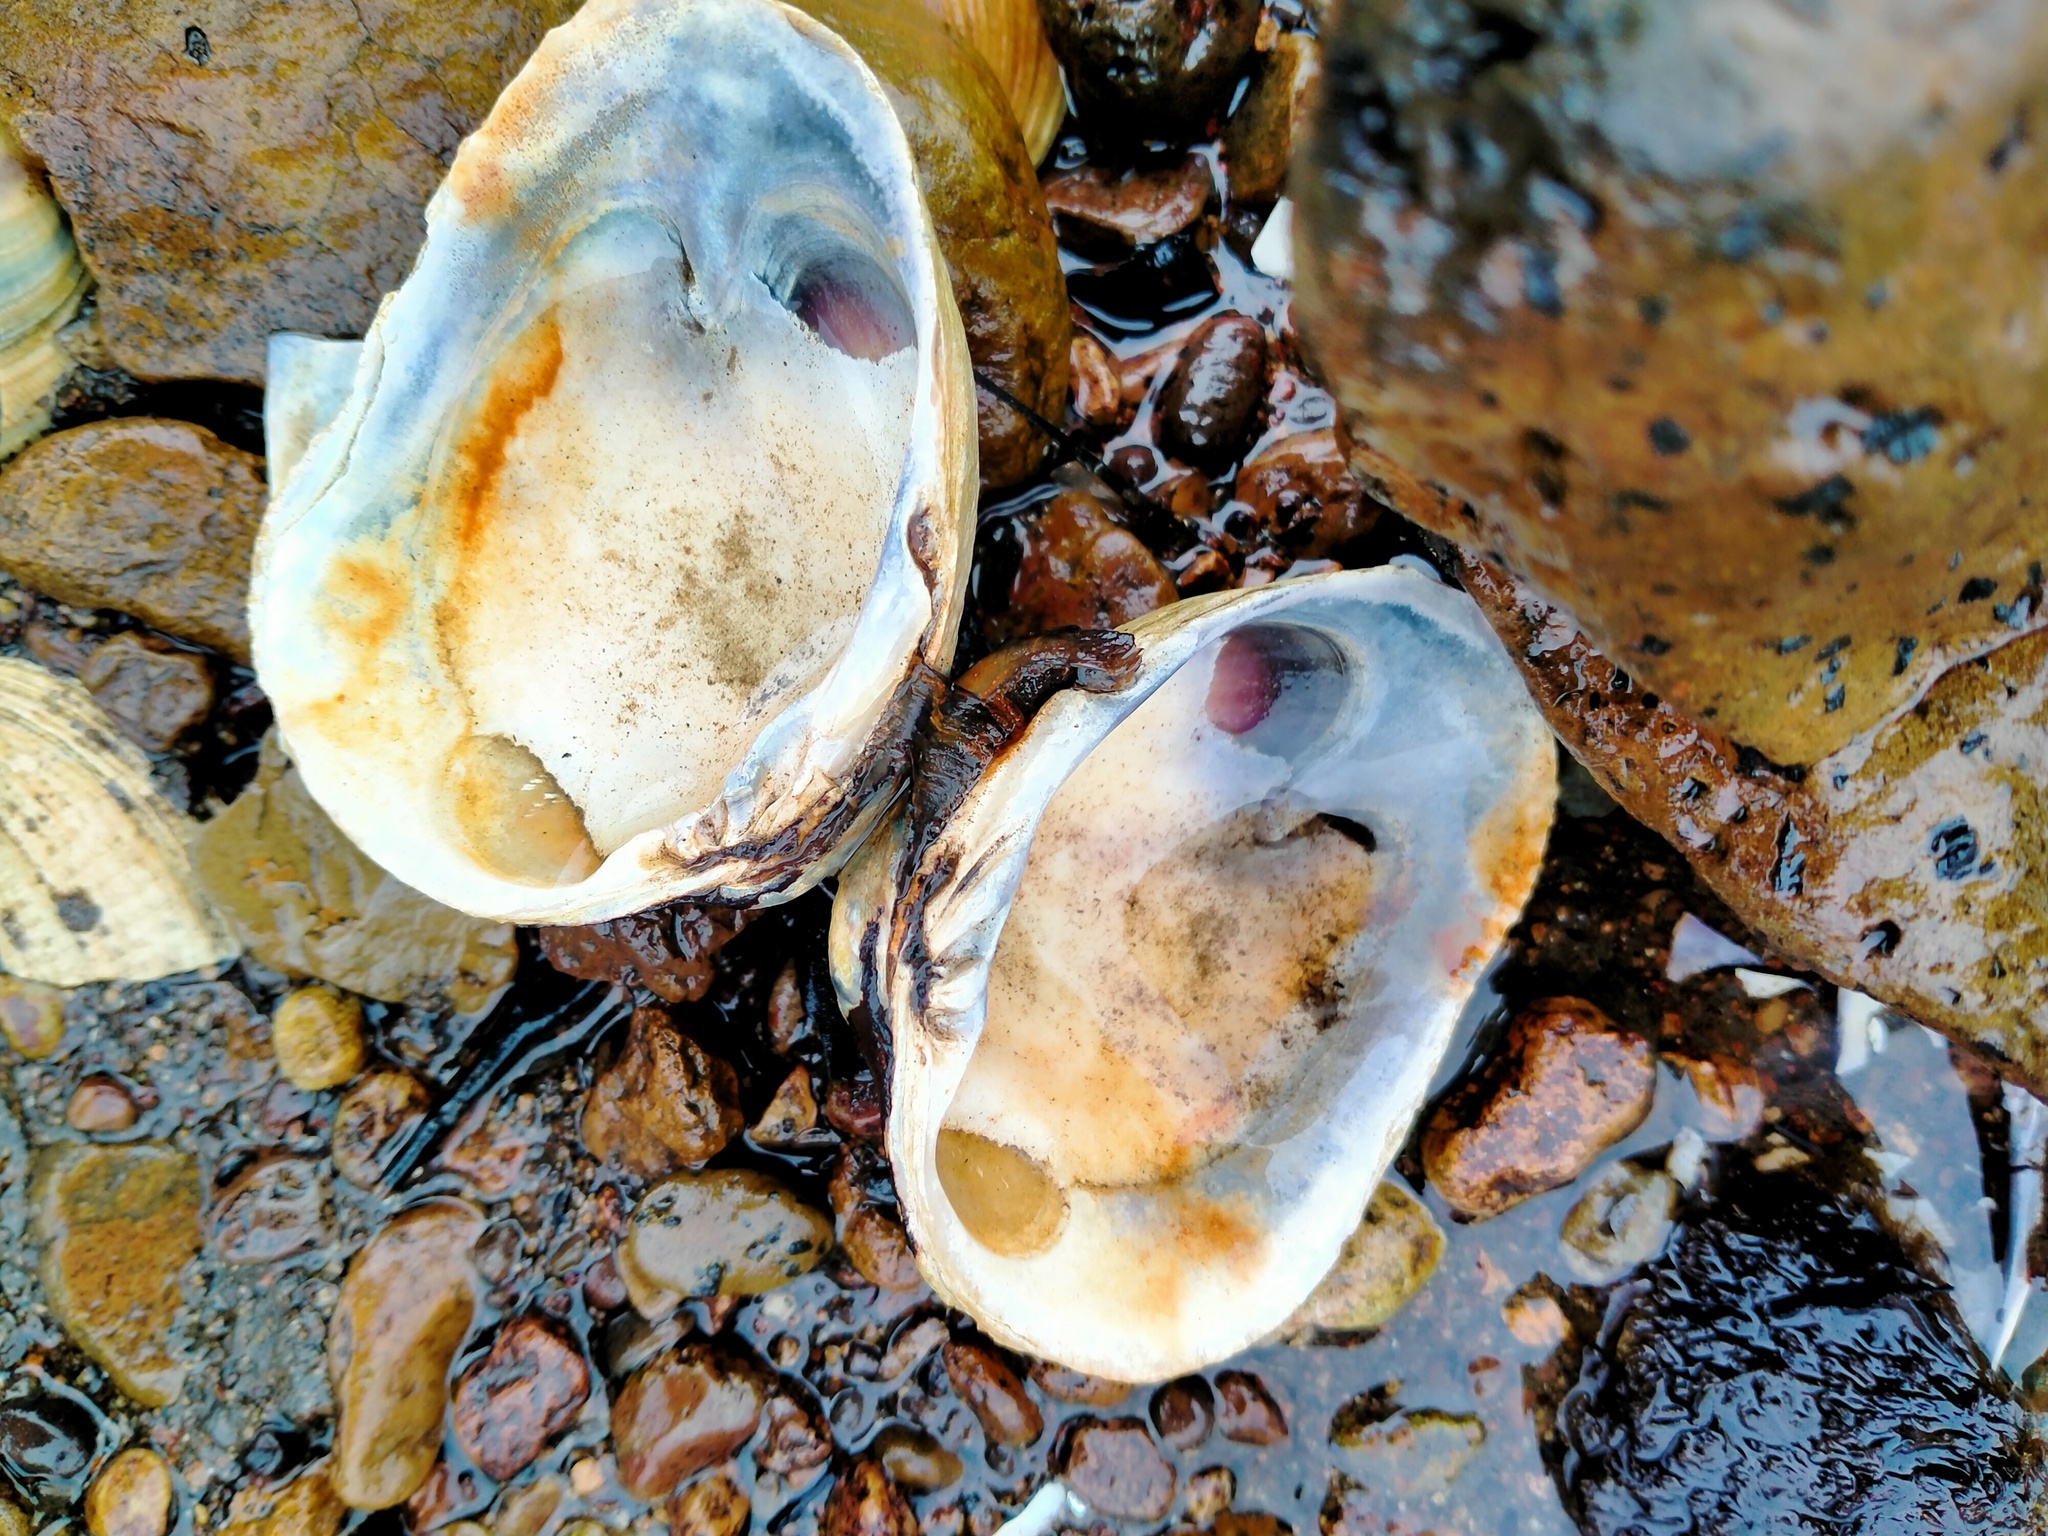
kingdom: Animalia
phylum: Mollusca
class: Bivalvia
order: Venerida
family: Veneridae
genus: Austrovenus
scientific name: Austrovenus stutchburyi
